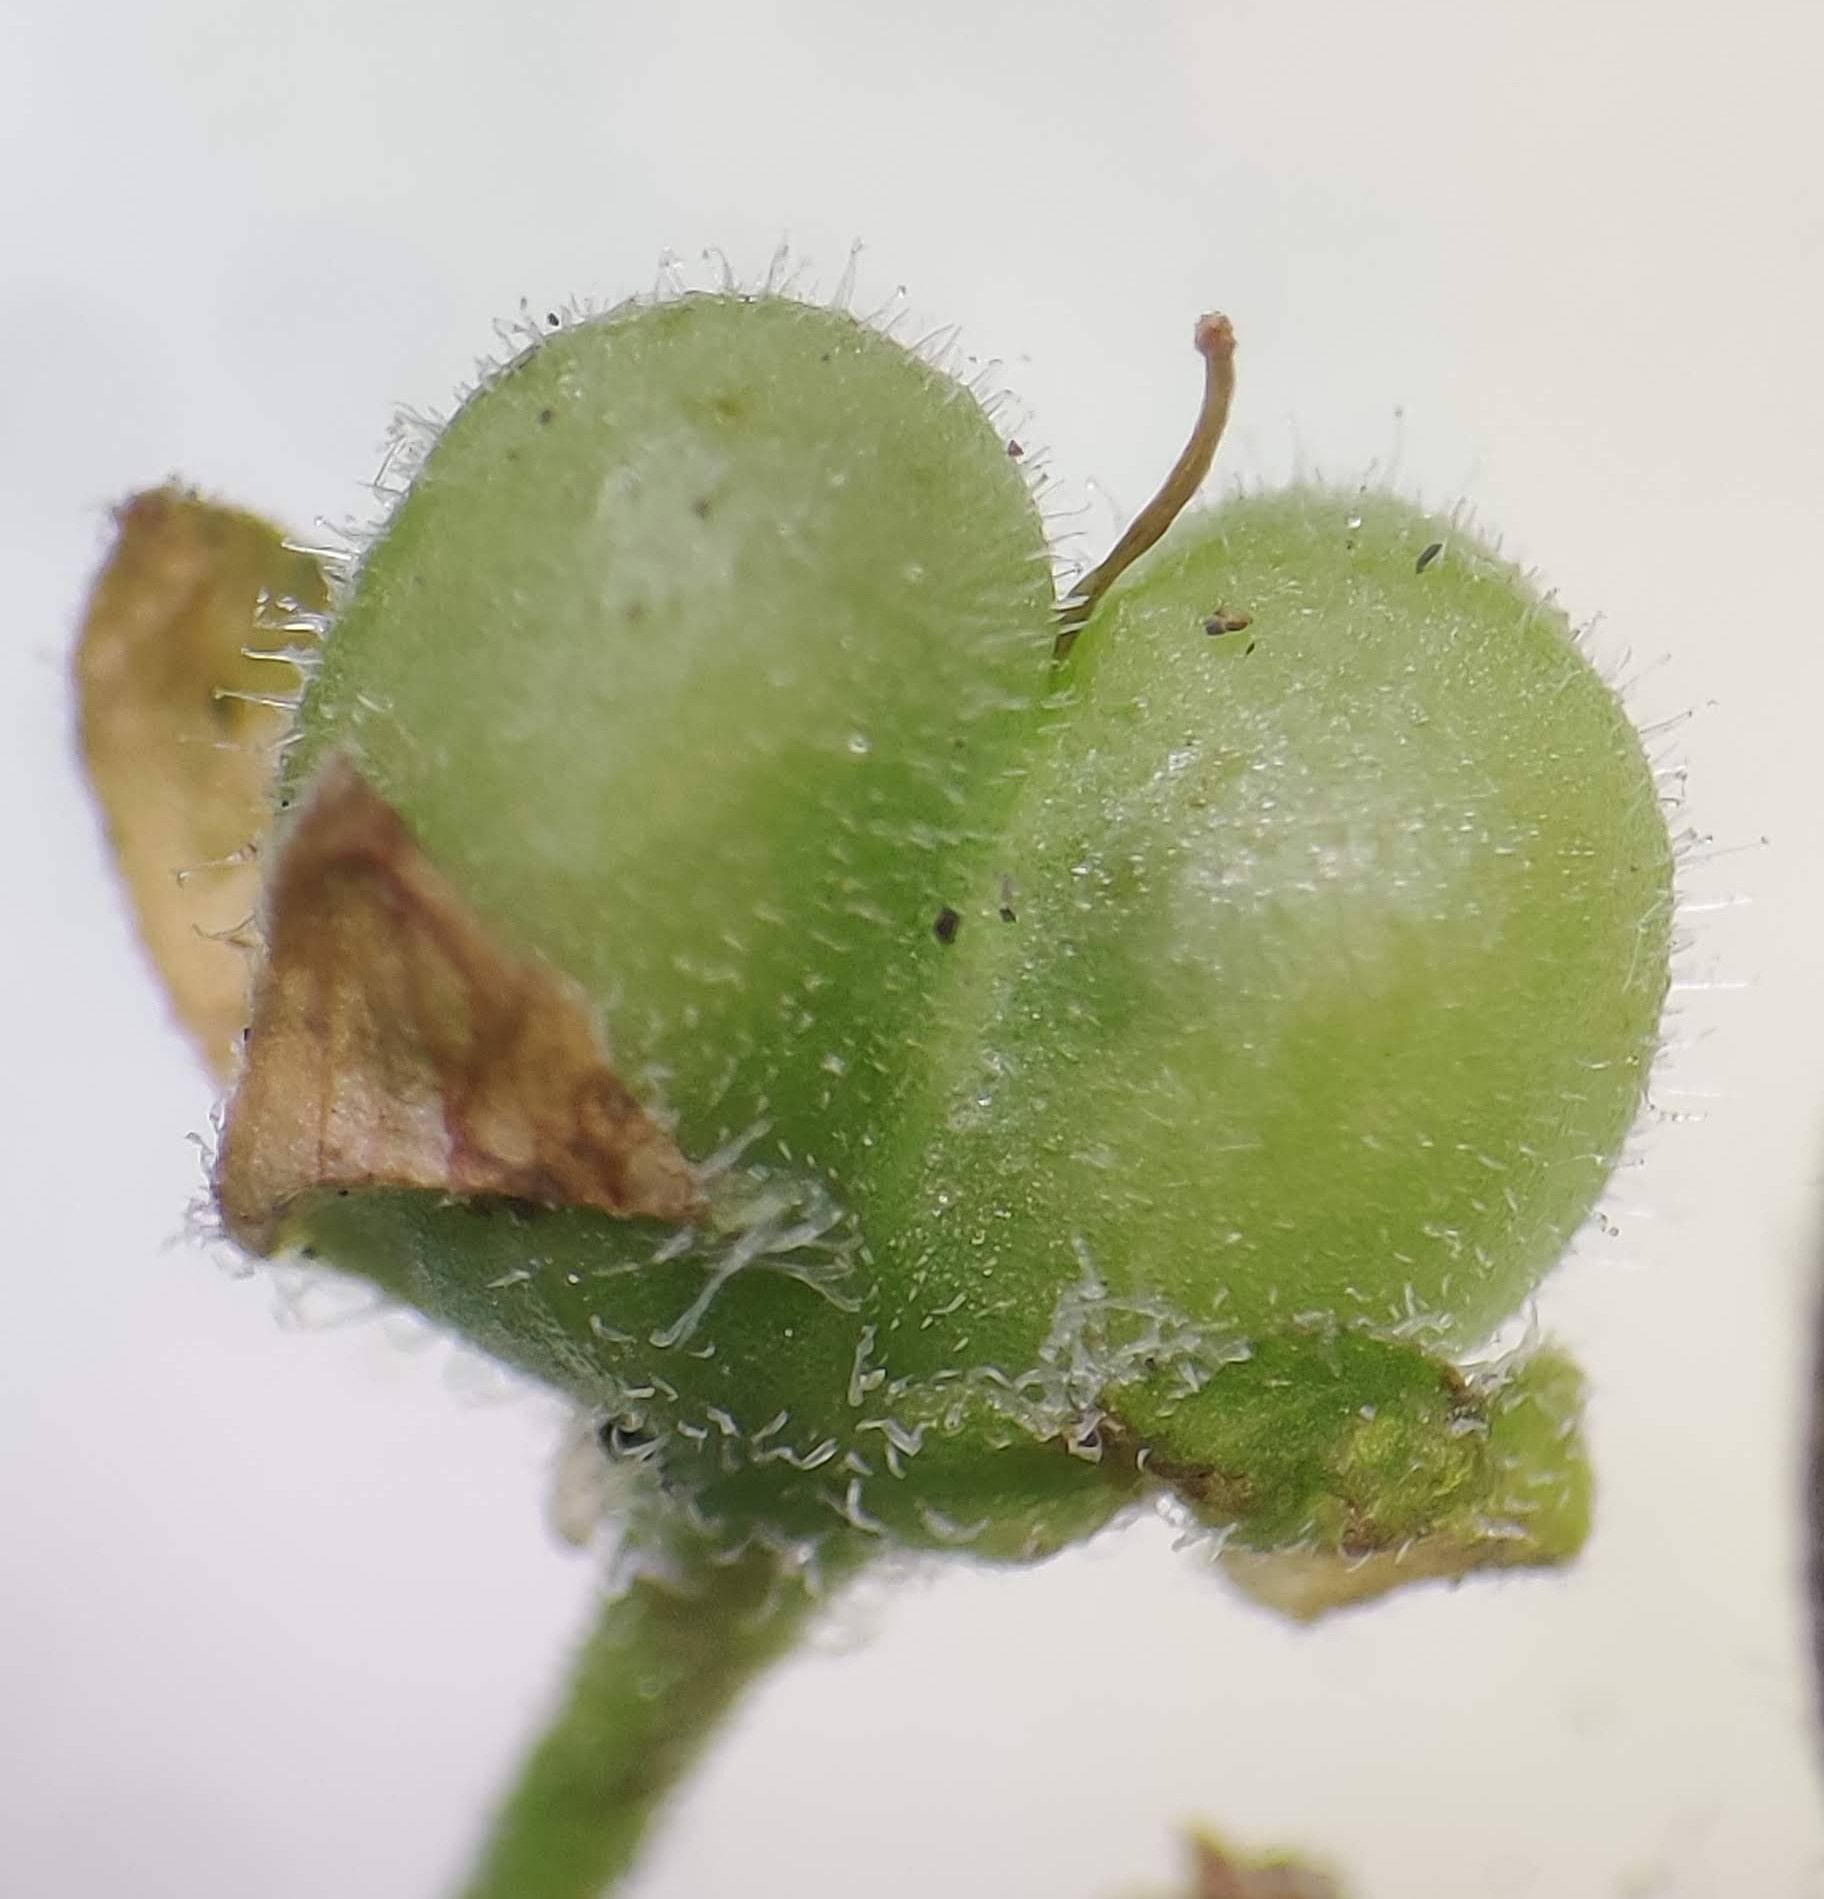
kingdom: Plantae
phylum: Tracheophyta
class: Magnoliopsida
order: Lamiales
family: Plantaginaceae
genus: Veronica
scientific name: Veronica polita
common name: Grey field-speedwell
